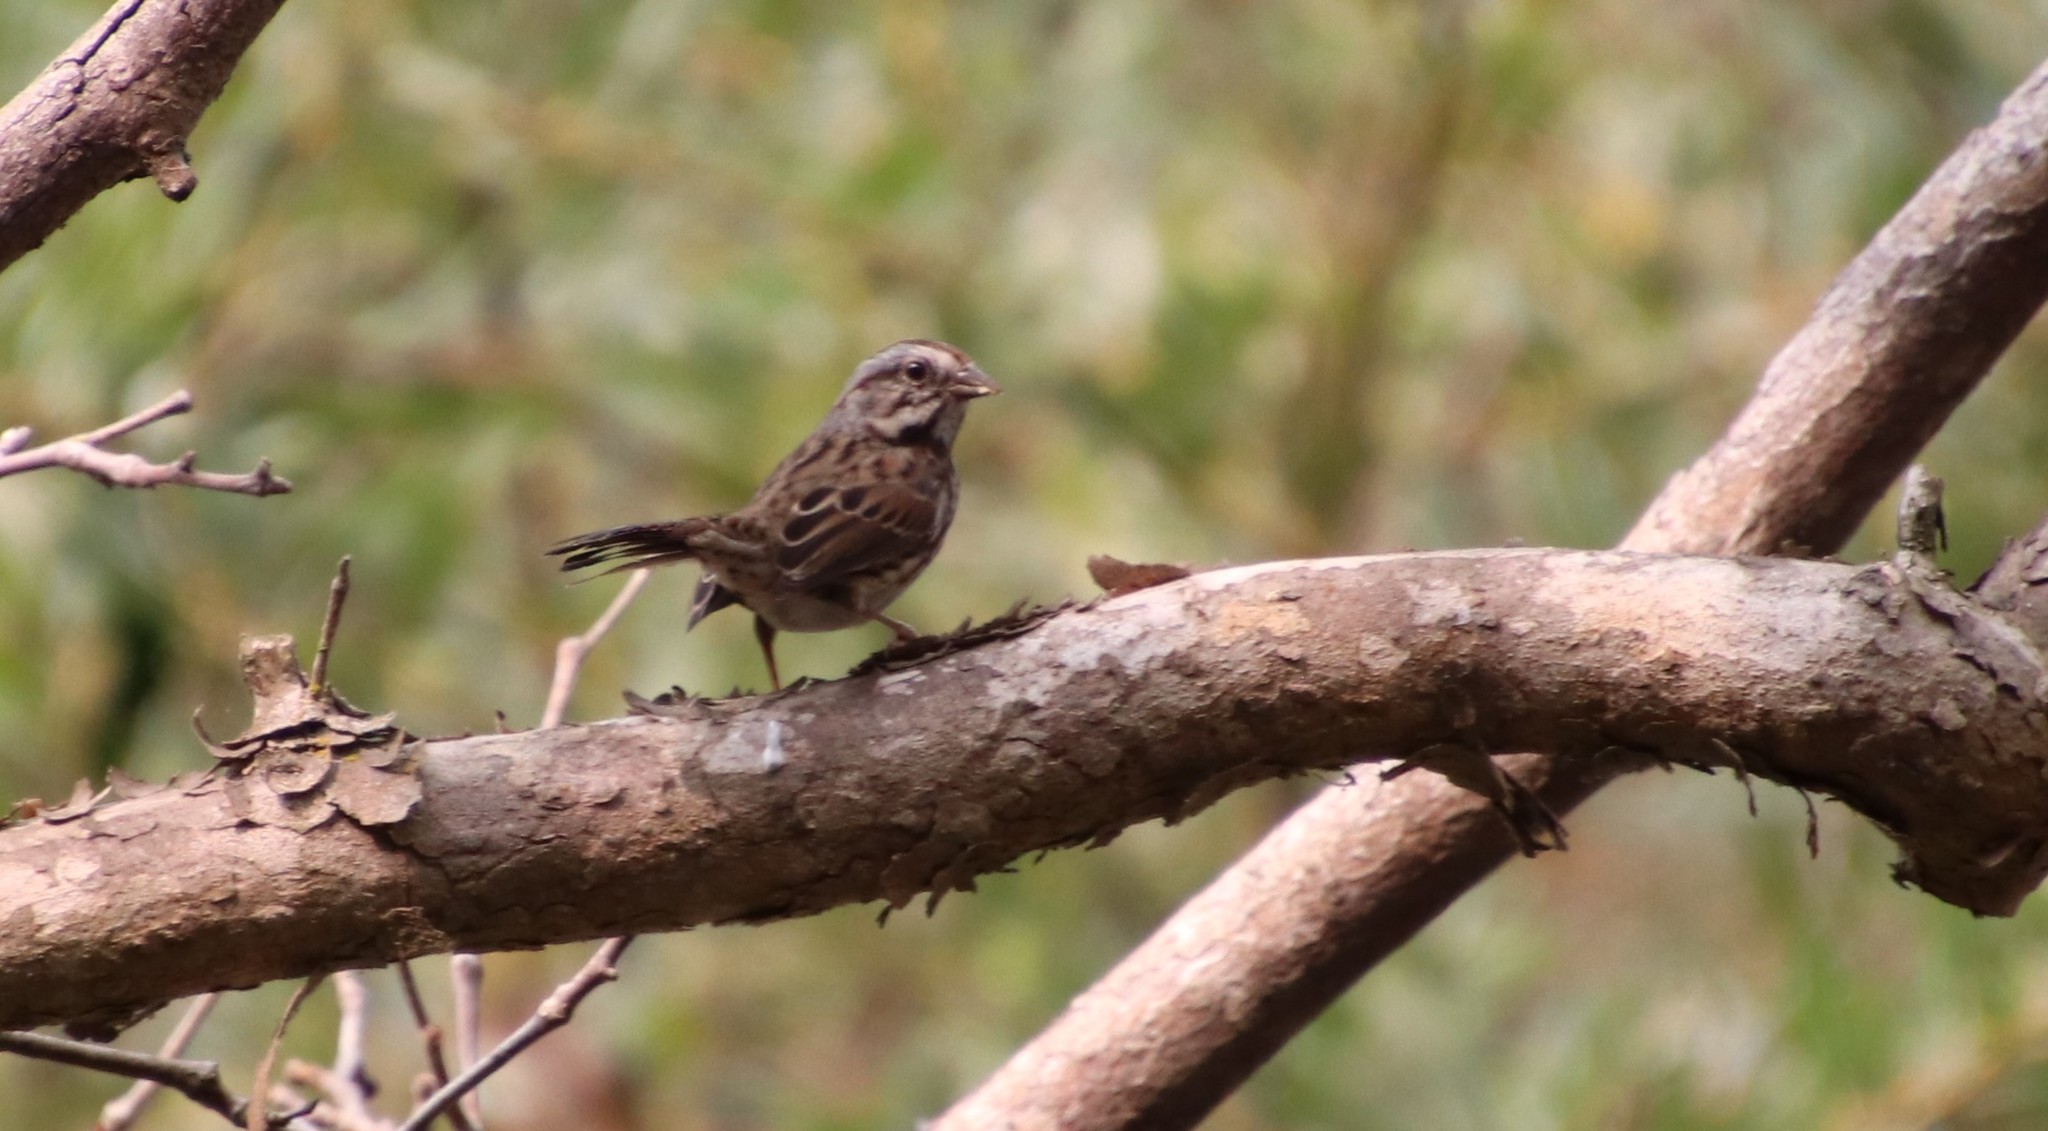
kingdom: Animalia
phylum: Chordata
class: Aves
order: Passeriformes
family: Passerellidae
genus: Melospiza
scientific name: Melospiza melodia
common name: Song sparrow
